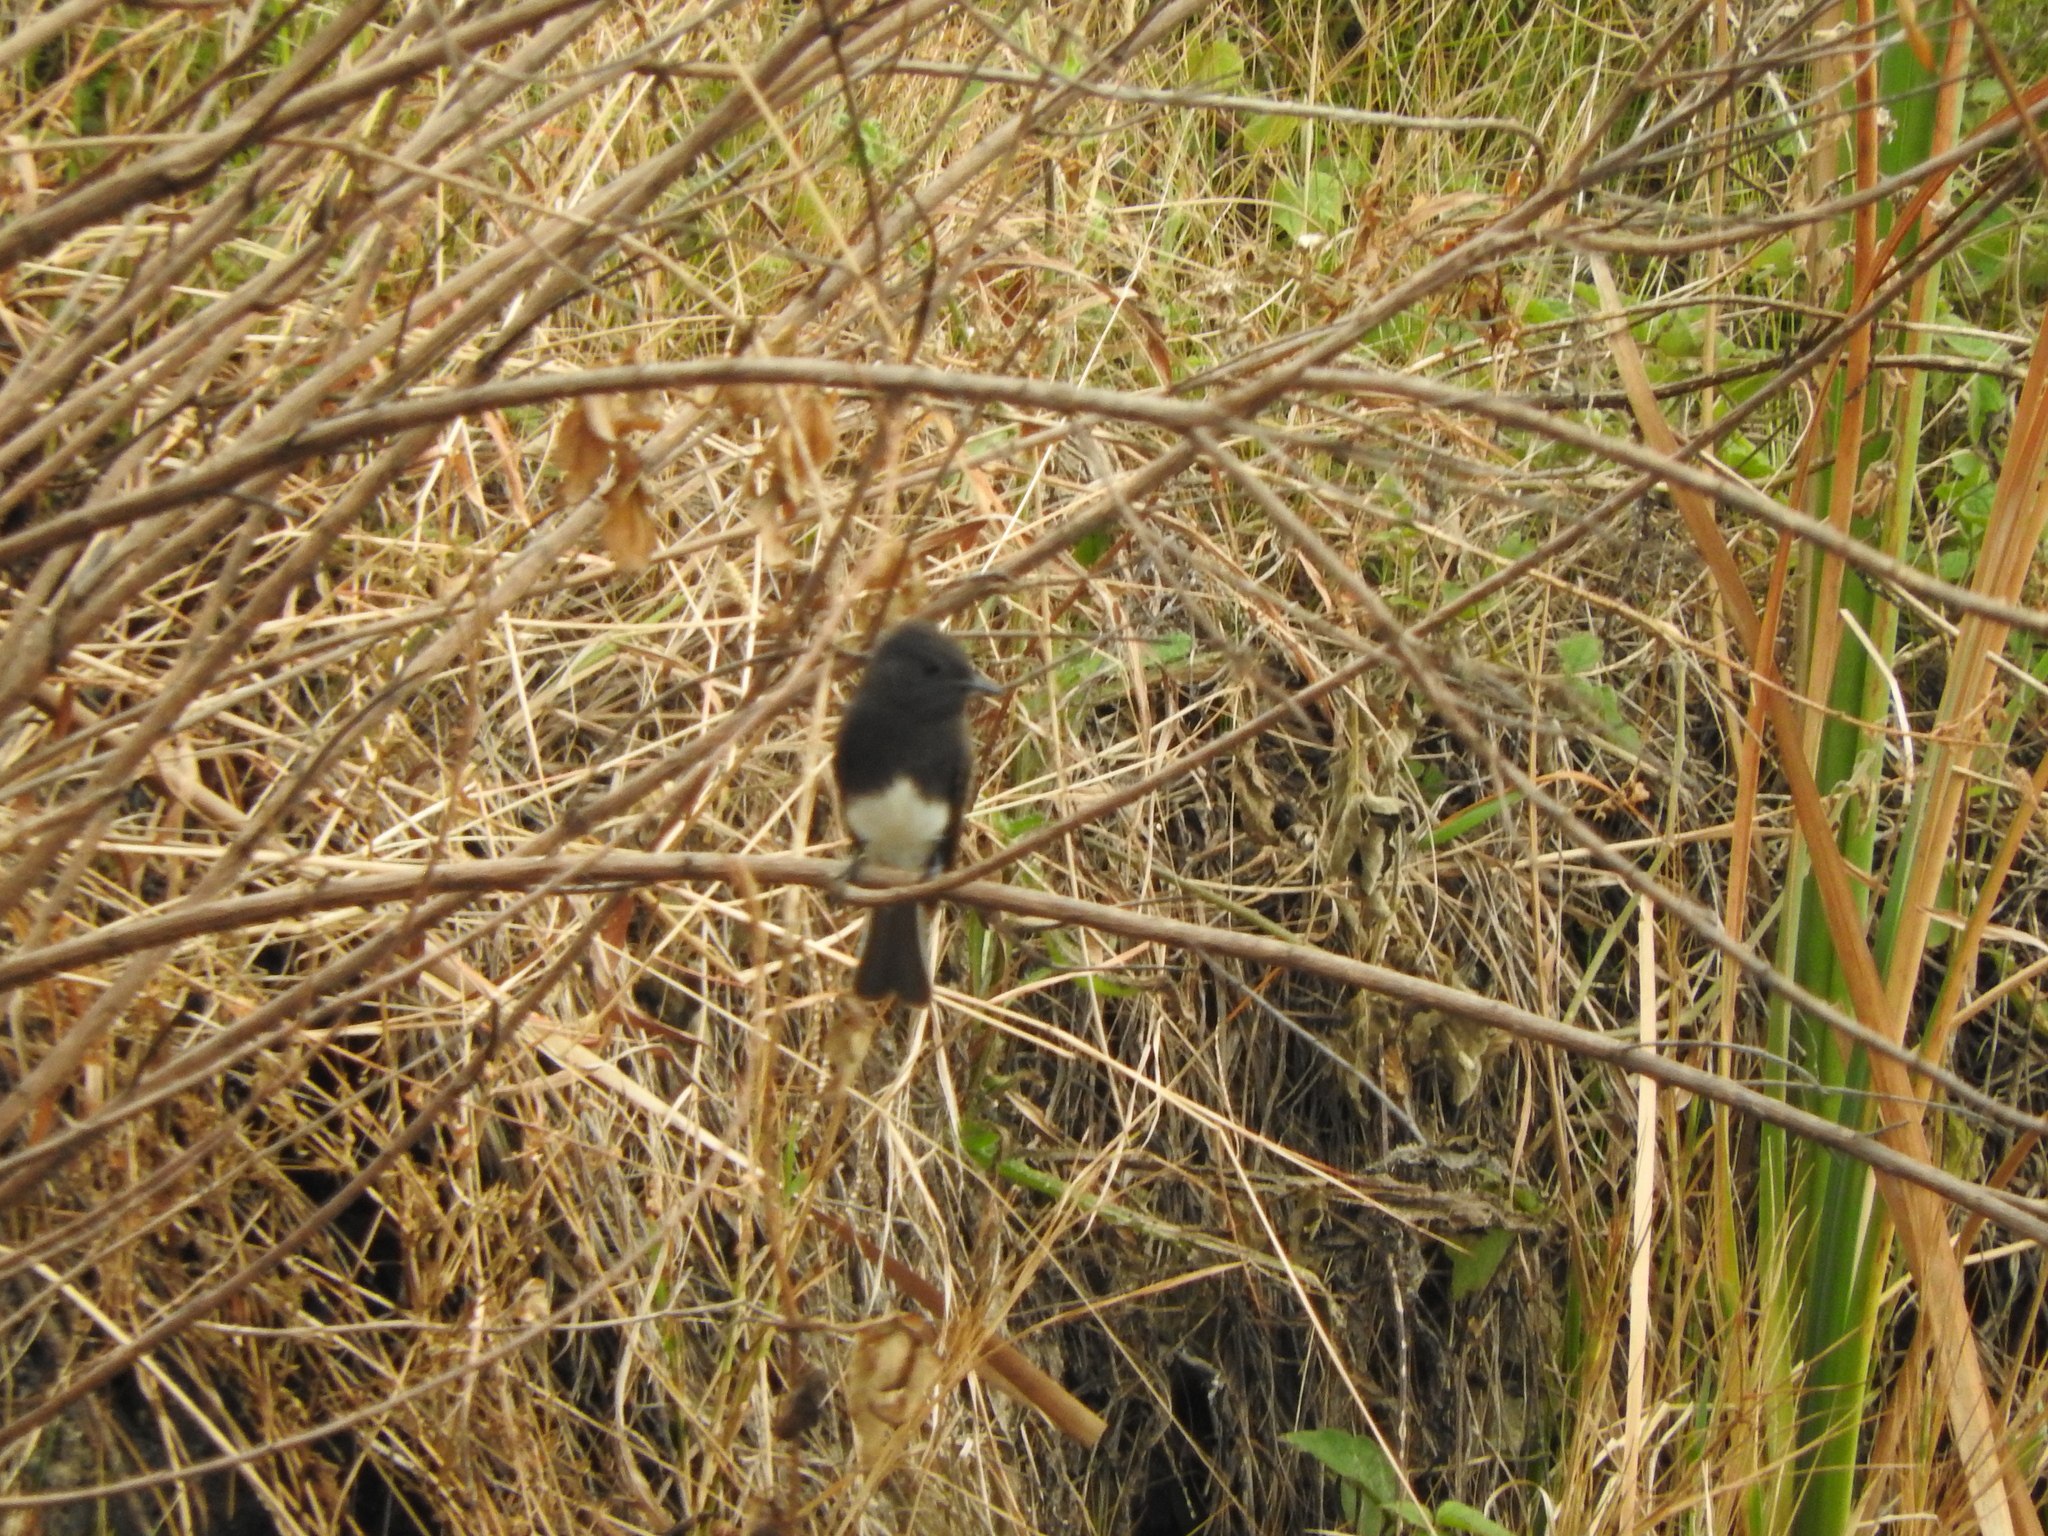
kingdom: Animalia
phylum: Chordata
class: Aves
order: Passeriformes
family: Tyrannidae
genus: Sayornis
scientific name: Sayornis nigricans
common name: Black phoebe
